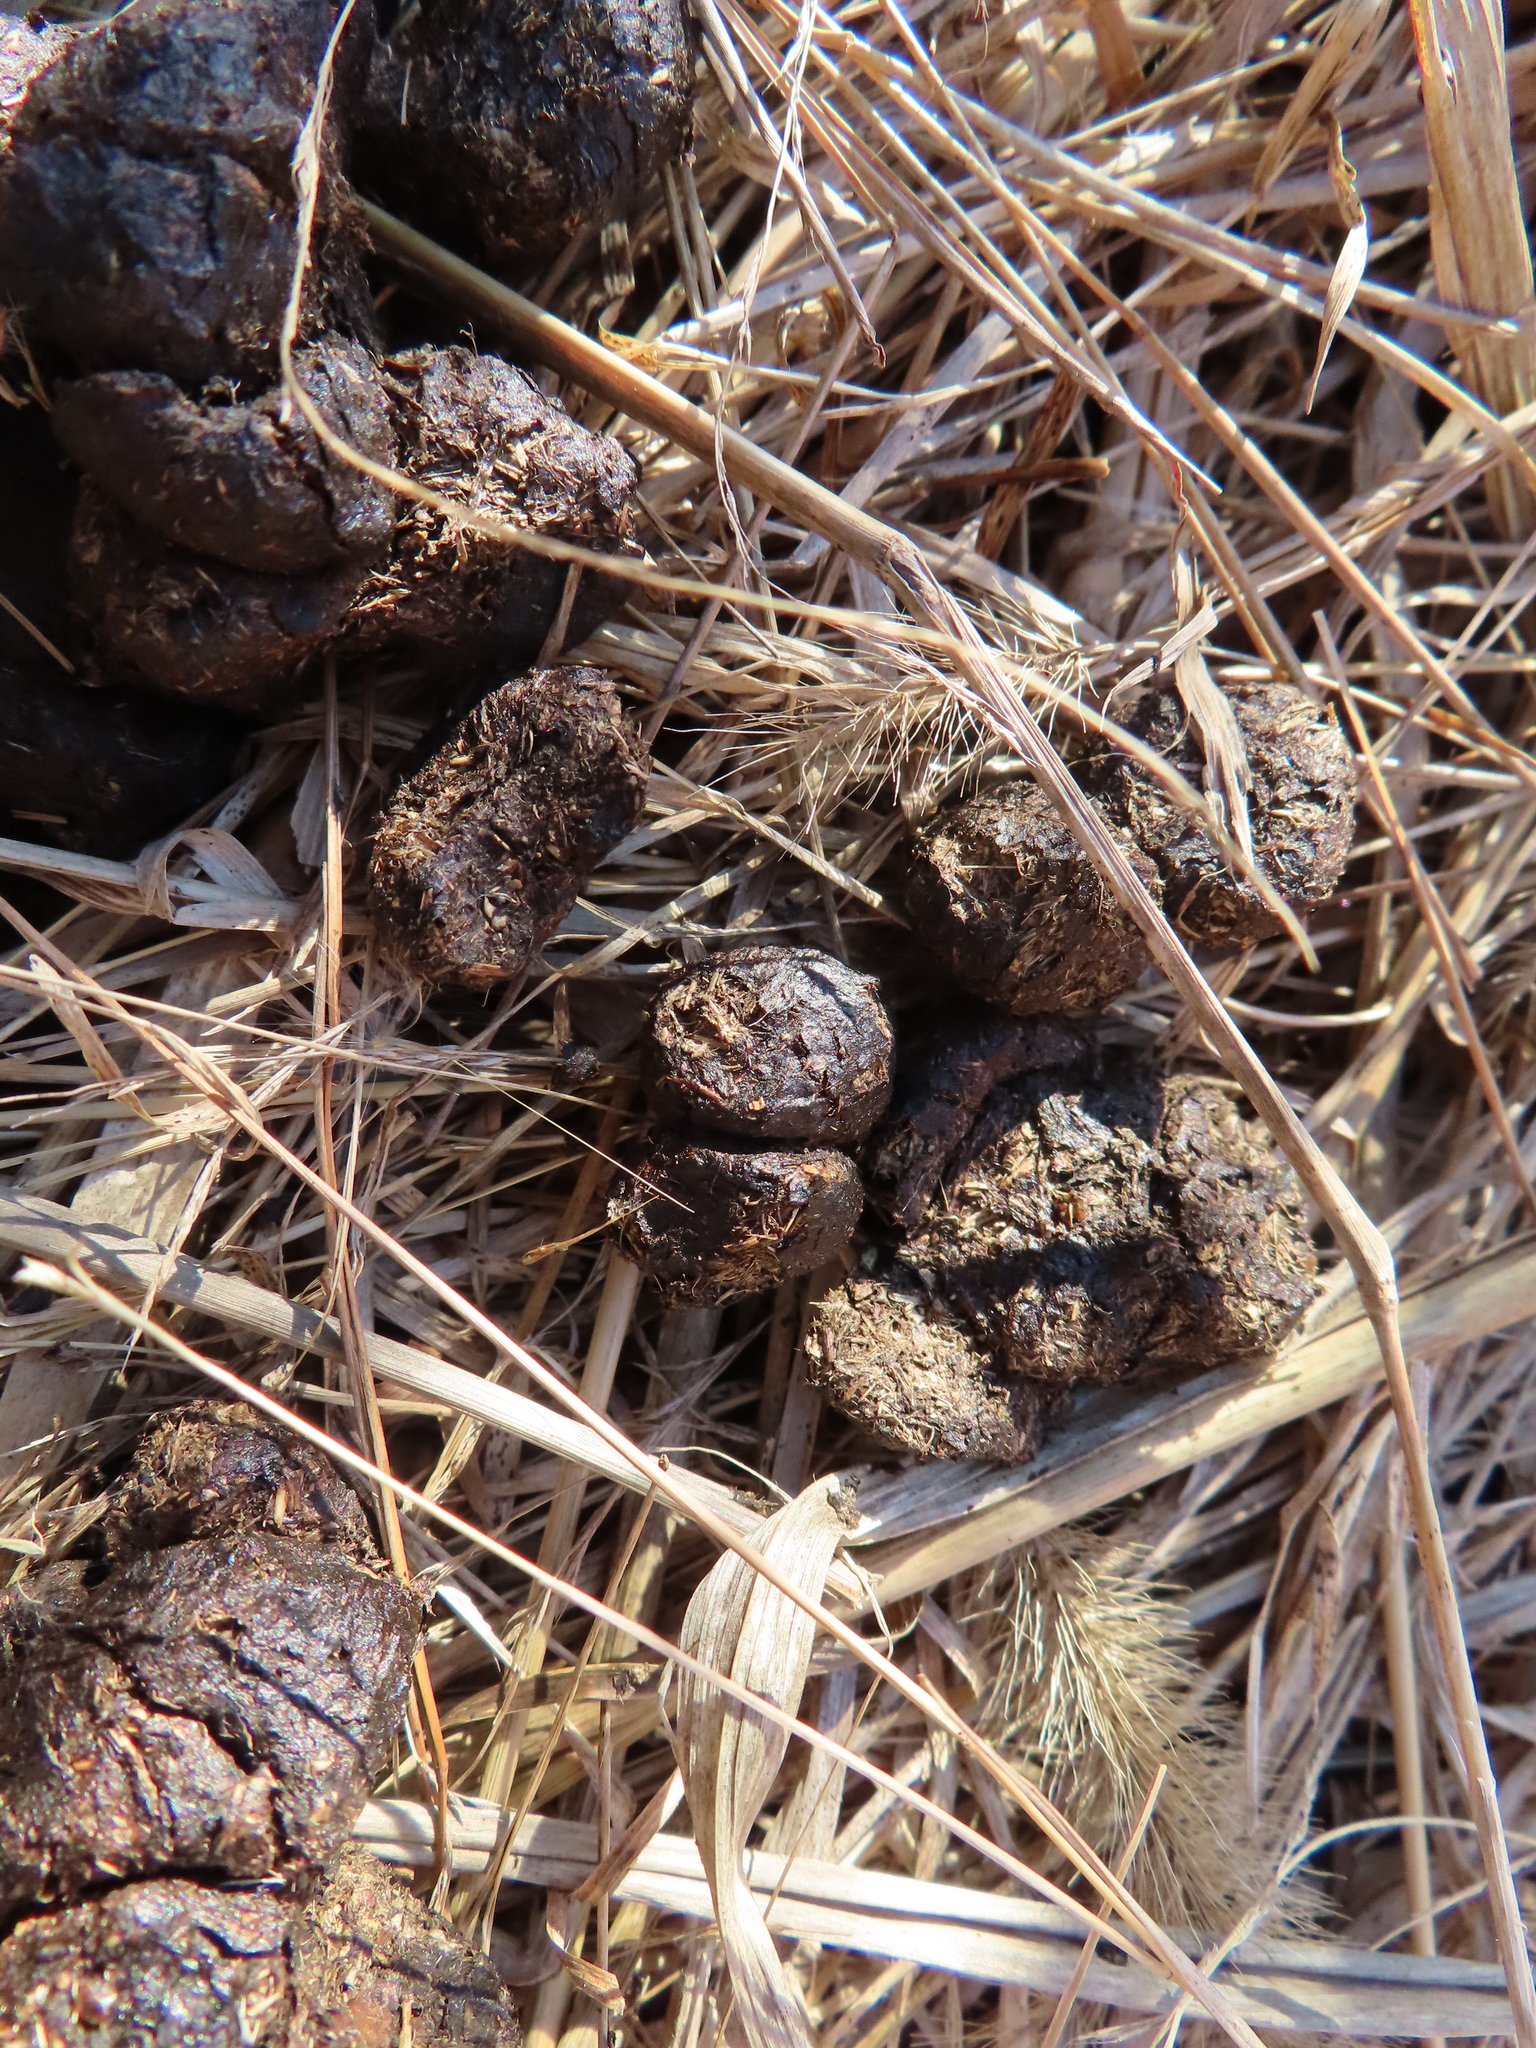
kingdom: Animalia
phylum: Chordata
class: Mammalia
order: Artiodactyla
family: Cervidae
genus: Odocoileus
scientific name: Odocoileus virginianus
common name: White-tailed deer
